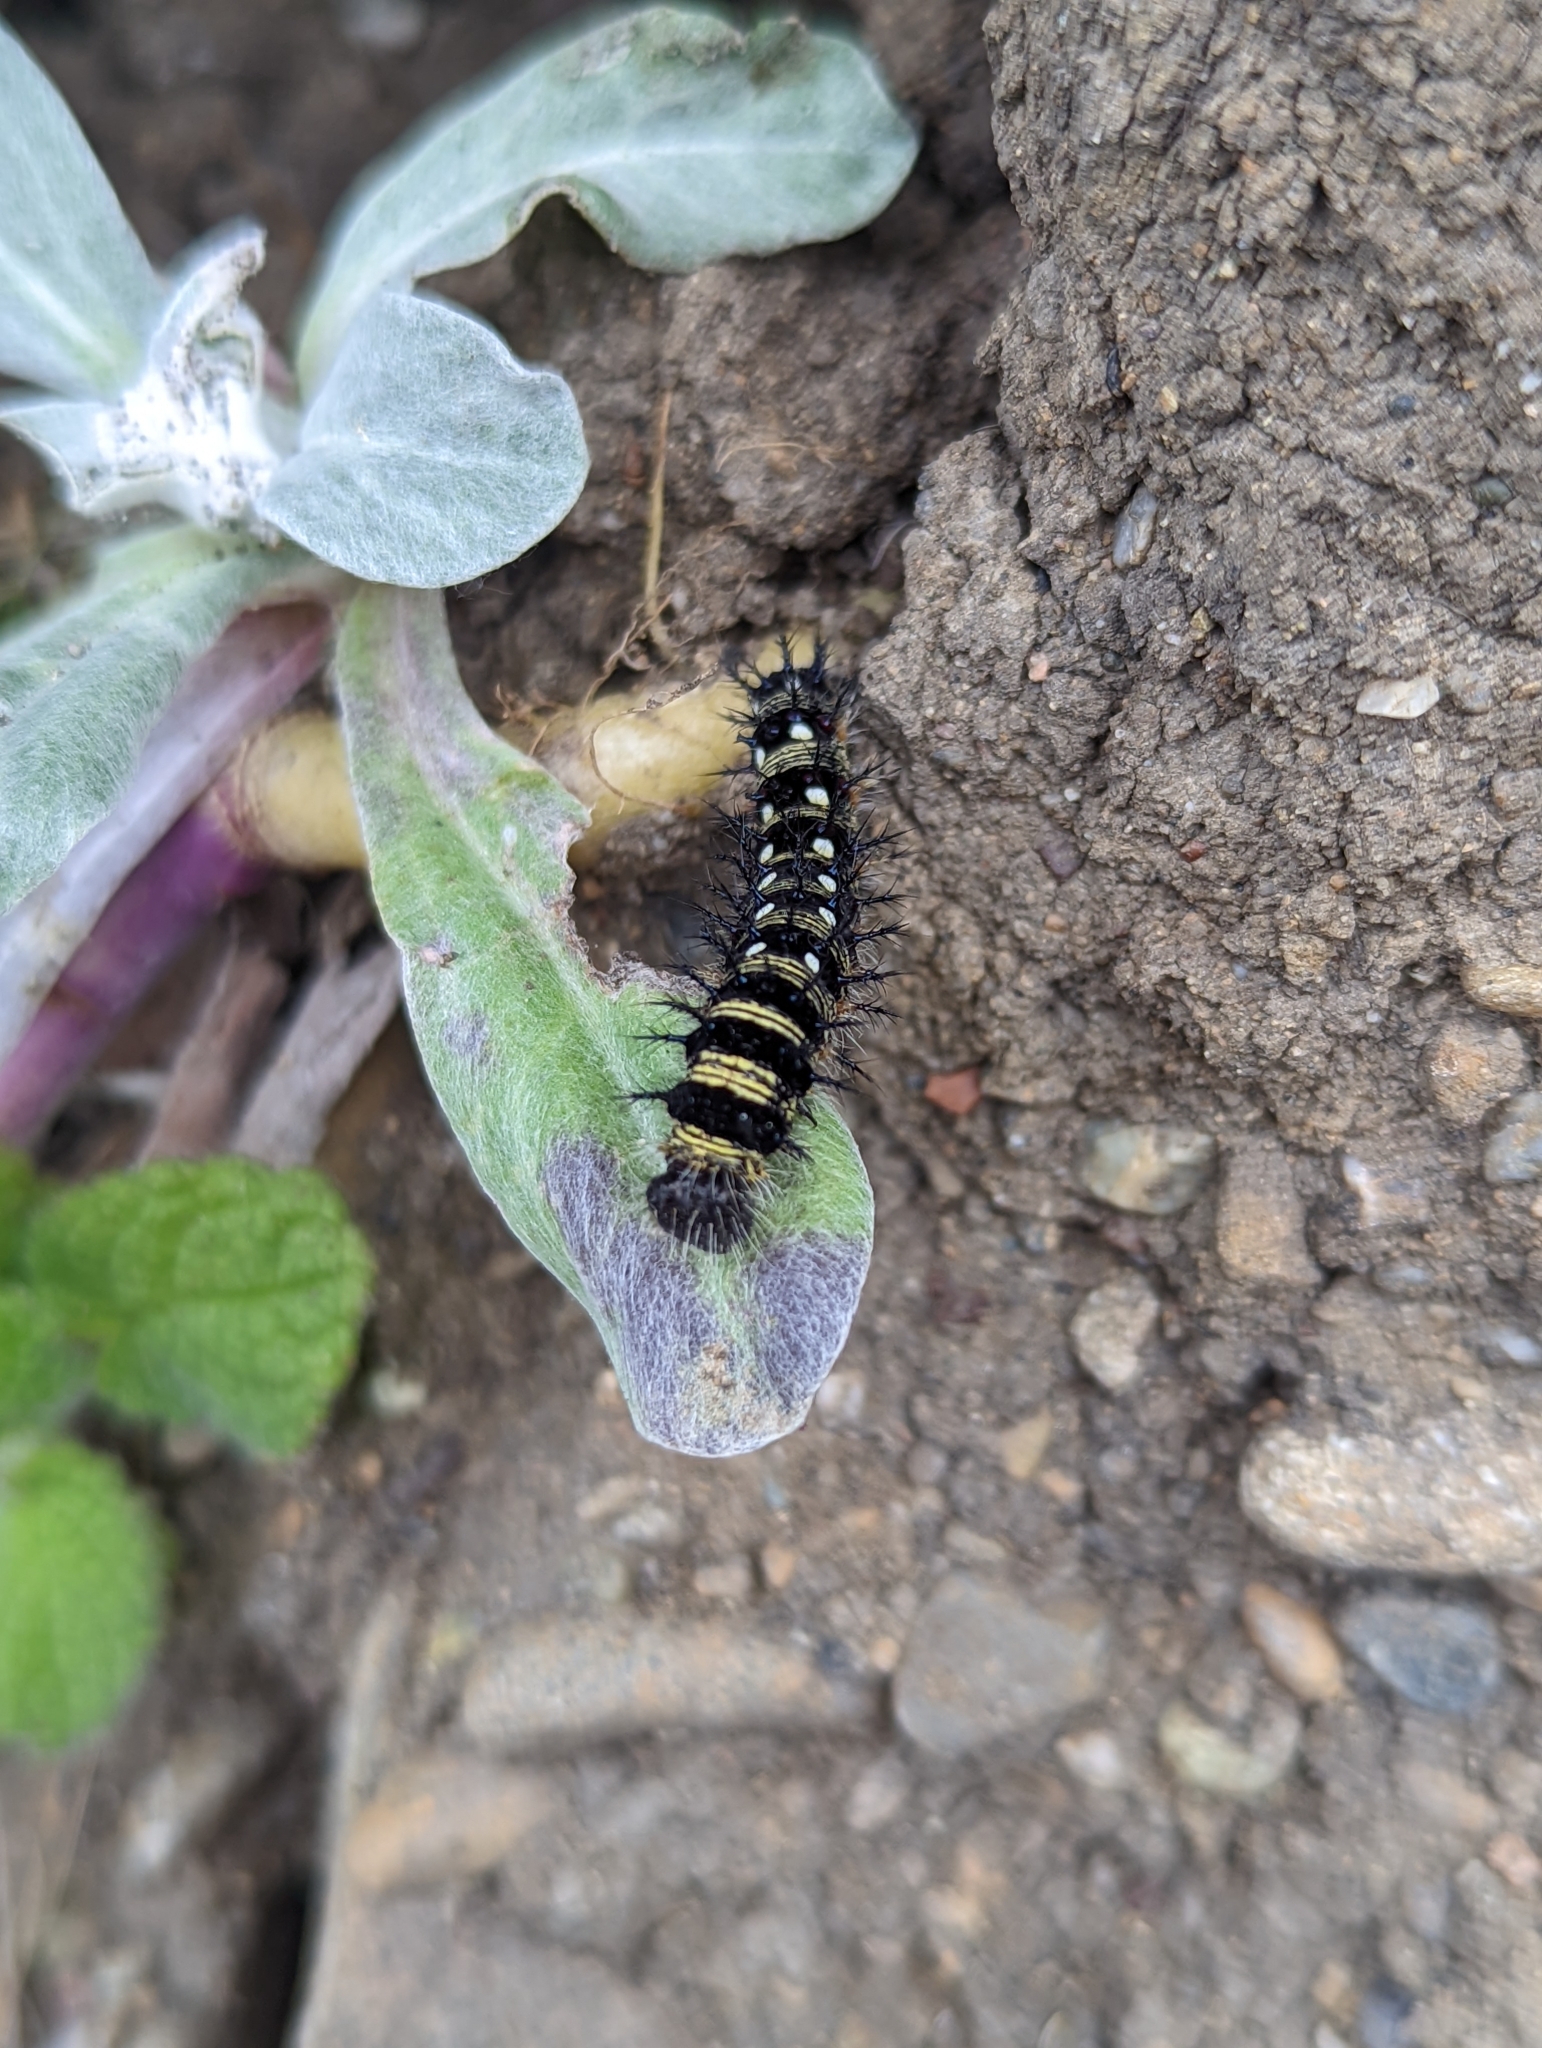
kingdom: Animalia
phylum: Arthropoda
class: Insecta
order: Lepidoptera
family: Nymphalidae
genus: Vanessa
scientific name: Vanessa virginiensis
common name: American lady
